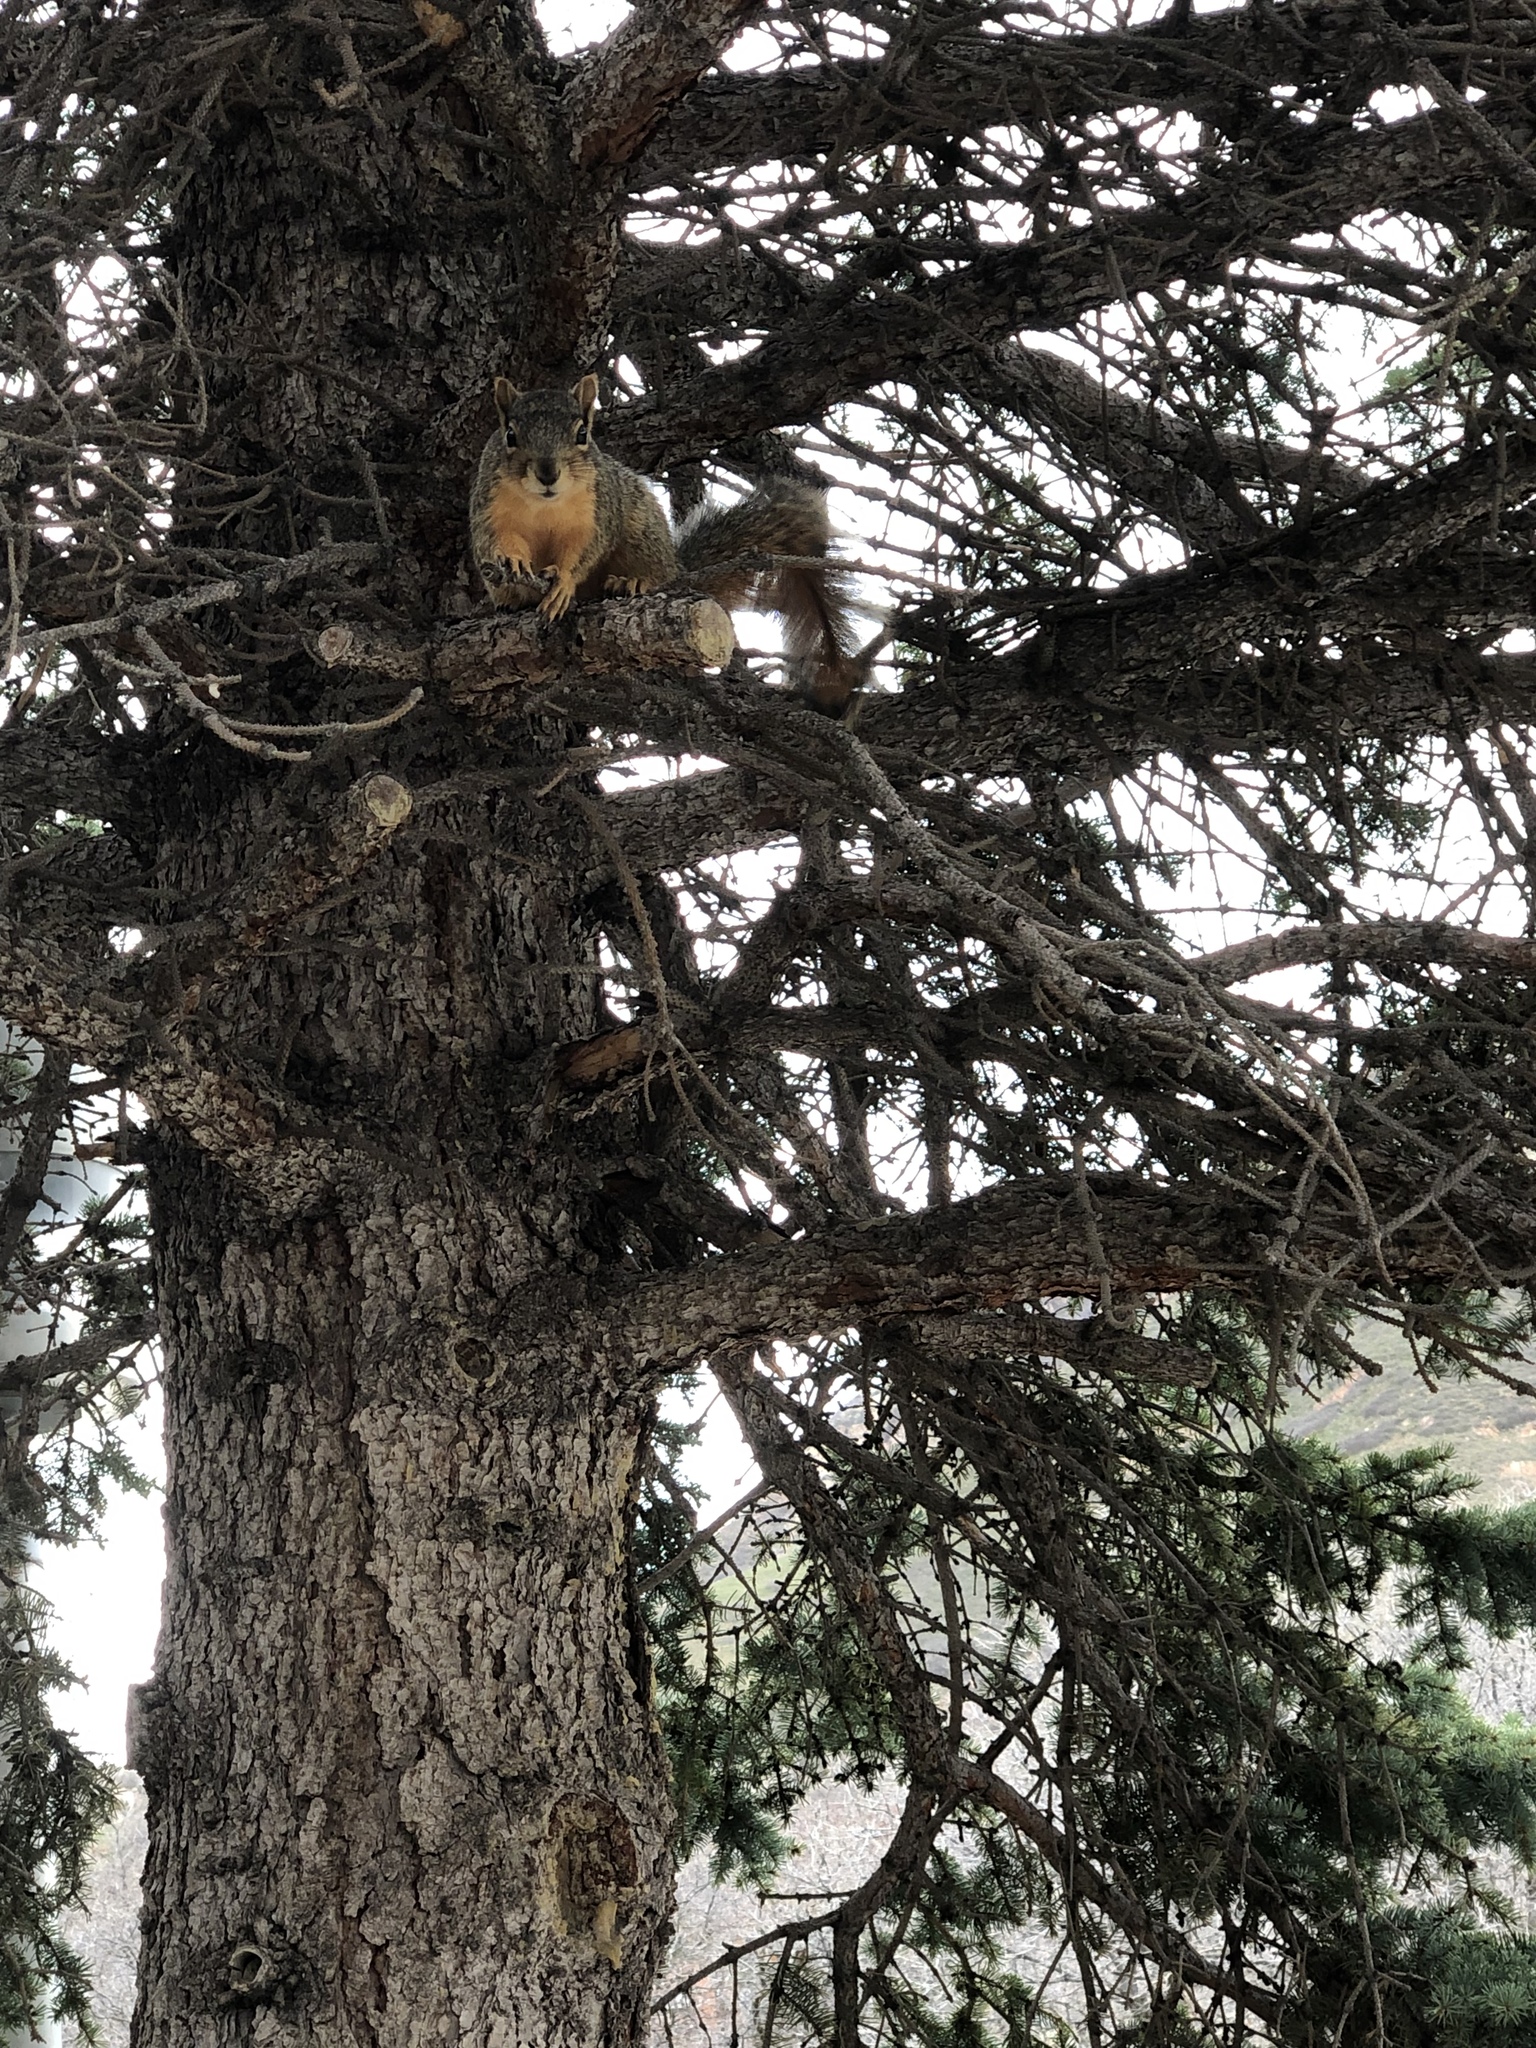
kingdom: Animalia
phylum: Chordata
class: Mammalia
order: Rodentia
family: Sciuridae
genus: Sciurus
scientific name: Sciurus niger
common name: Fox squirrel
